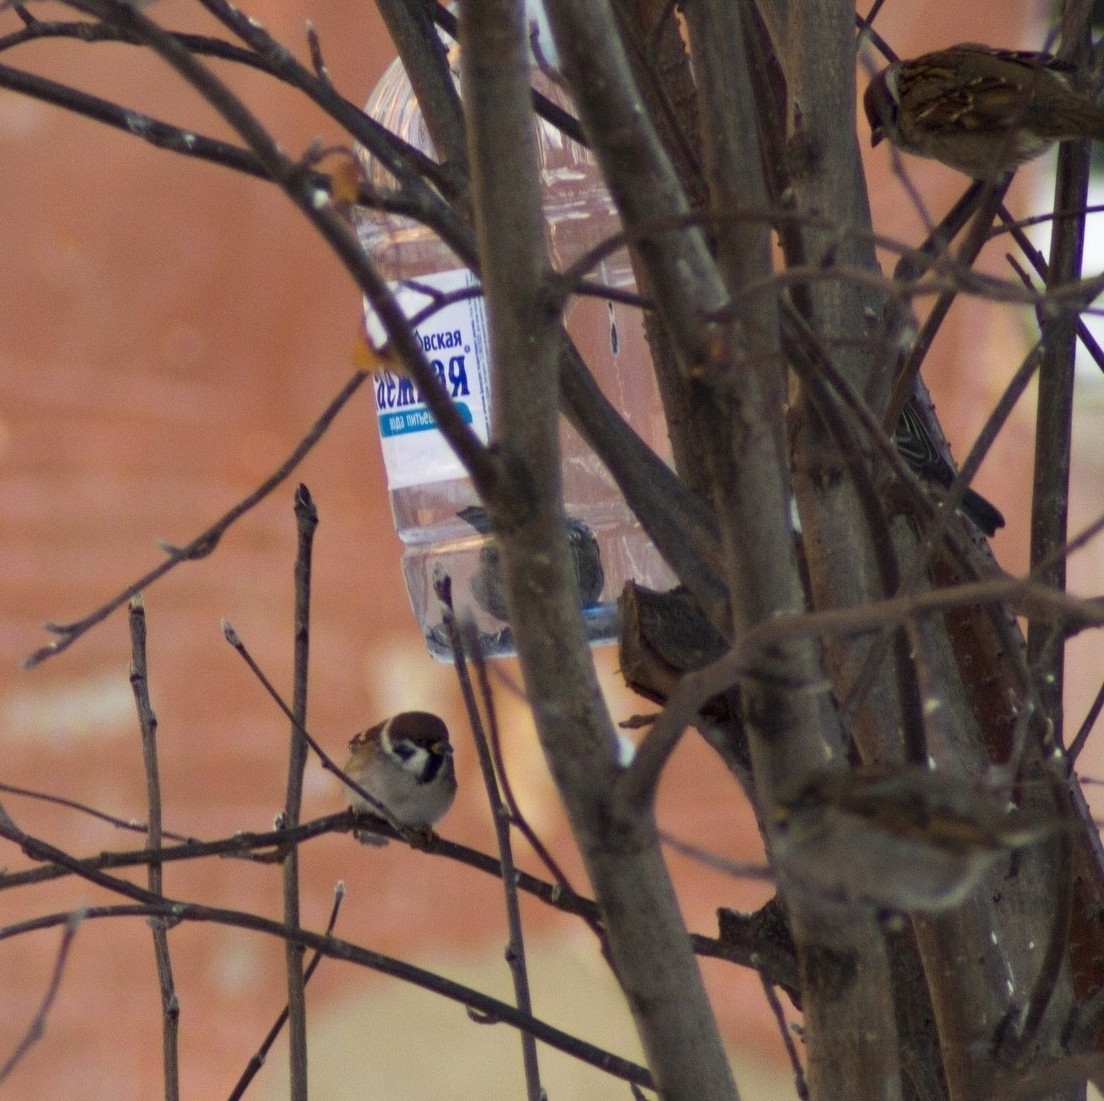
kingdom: Animalia
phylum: Chordata
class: Aves
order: Passeriformes
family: Passeridae
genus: Passer
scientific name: Passer montanus
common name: Eurasian tree sparrow
